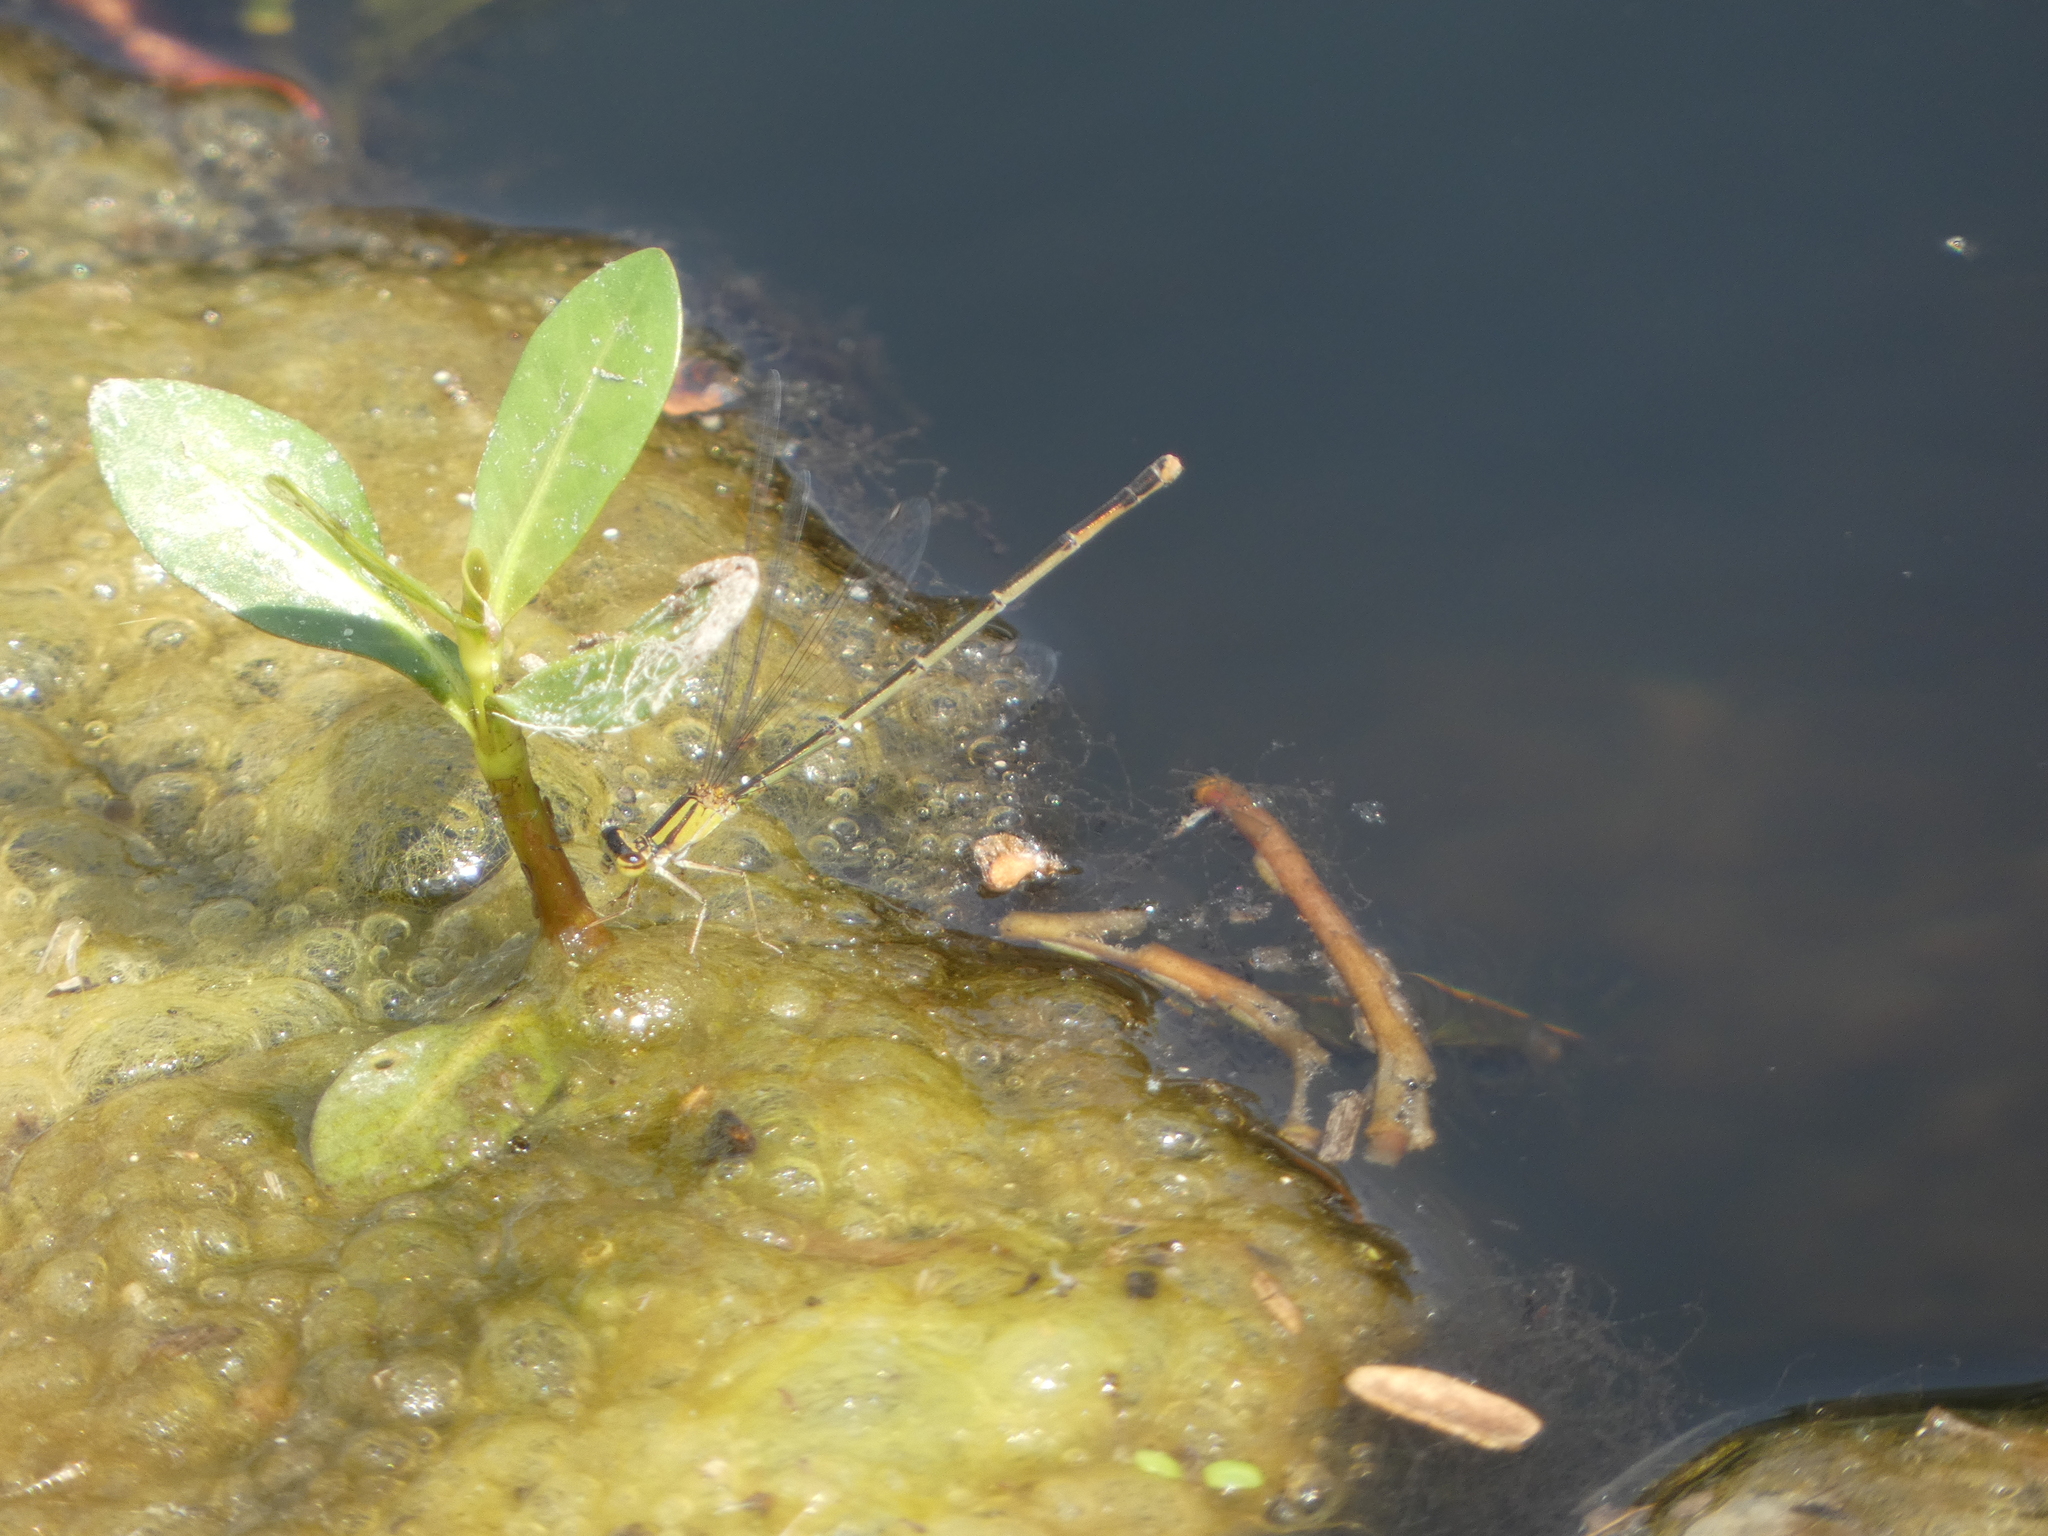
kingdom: Animalia
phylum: Arthropoda
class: Insecta
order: Odonata
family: Coenagrionidae
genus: Enallagma
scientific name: Enallagma signatum
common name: Orange bluet
